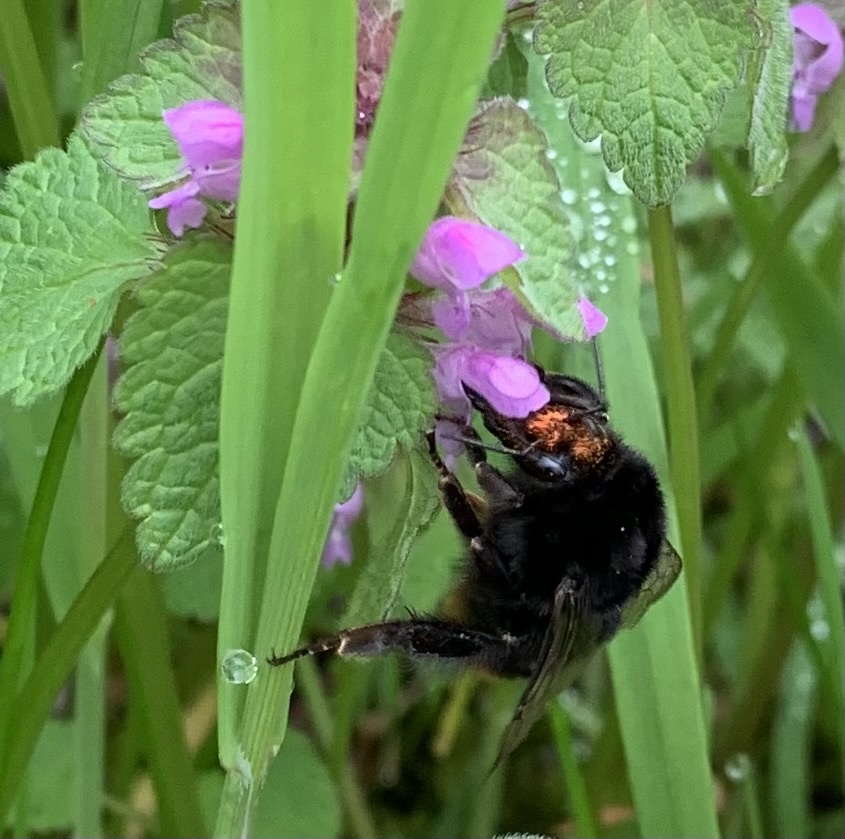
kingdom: Animalia
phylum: Arthropoda
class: Insecta
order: Hymenoptera
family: Apidae
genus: Bombus
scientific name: Bombus lapidarius
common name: Large red-tailed humble-bee
